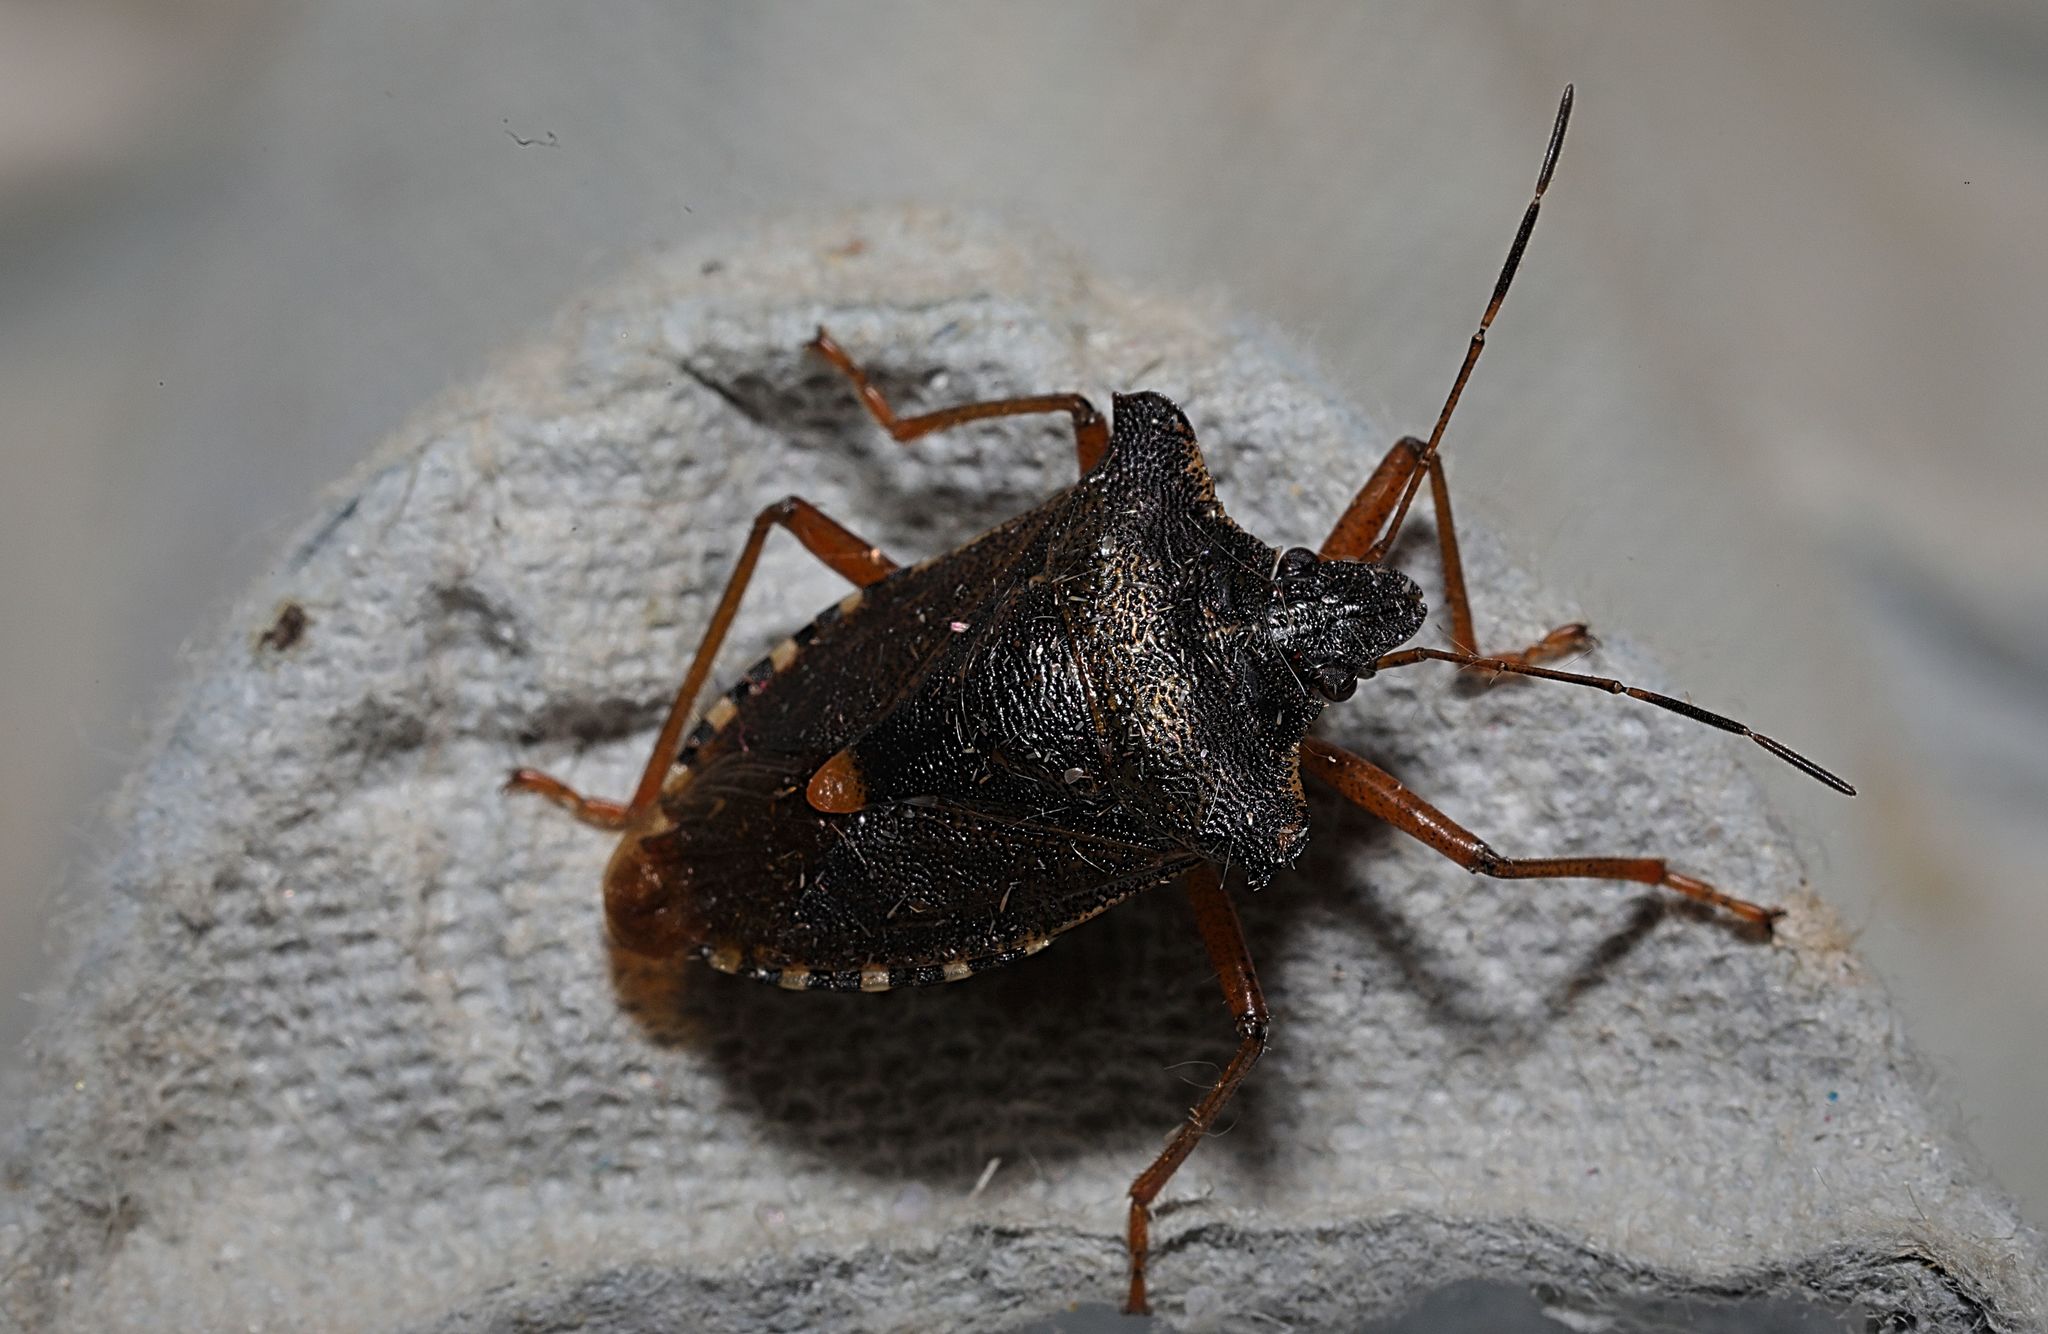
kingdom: Animalia
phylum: Arthropoda
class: Insecta
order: Hemiptera
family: Pentatomidae
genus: Pentatoma
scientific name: Pentatoma rufipes
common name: Forest bug
